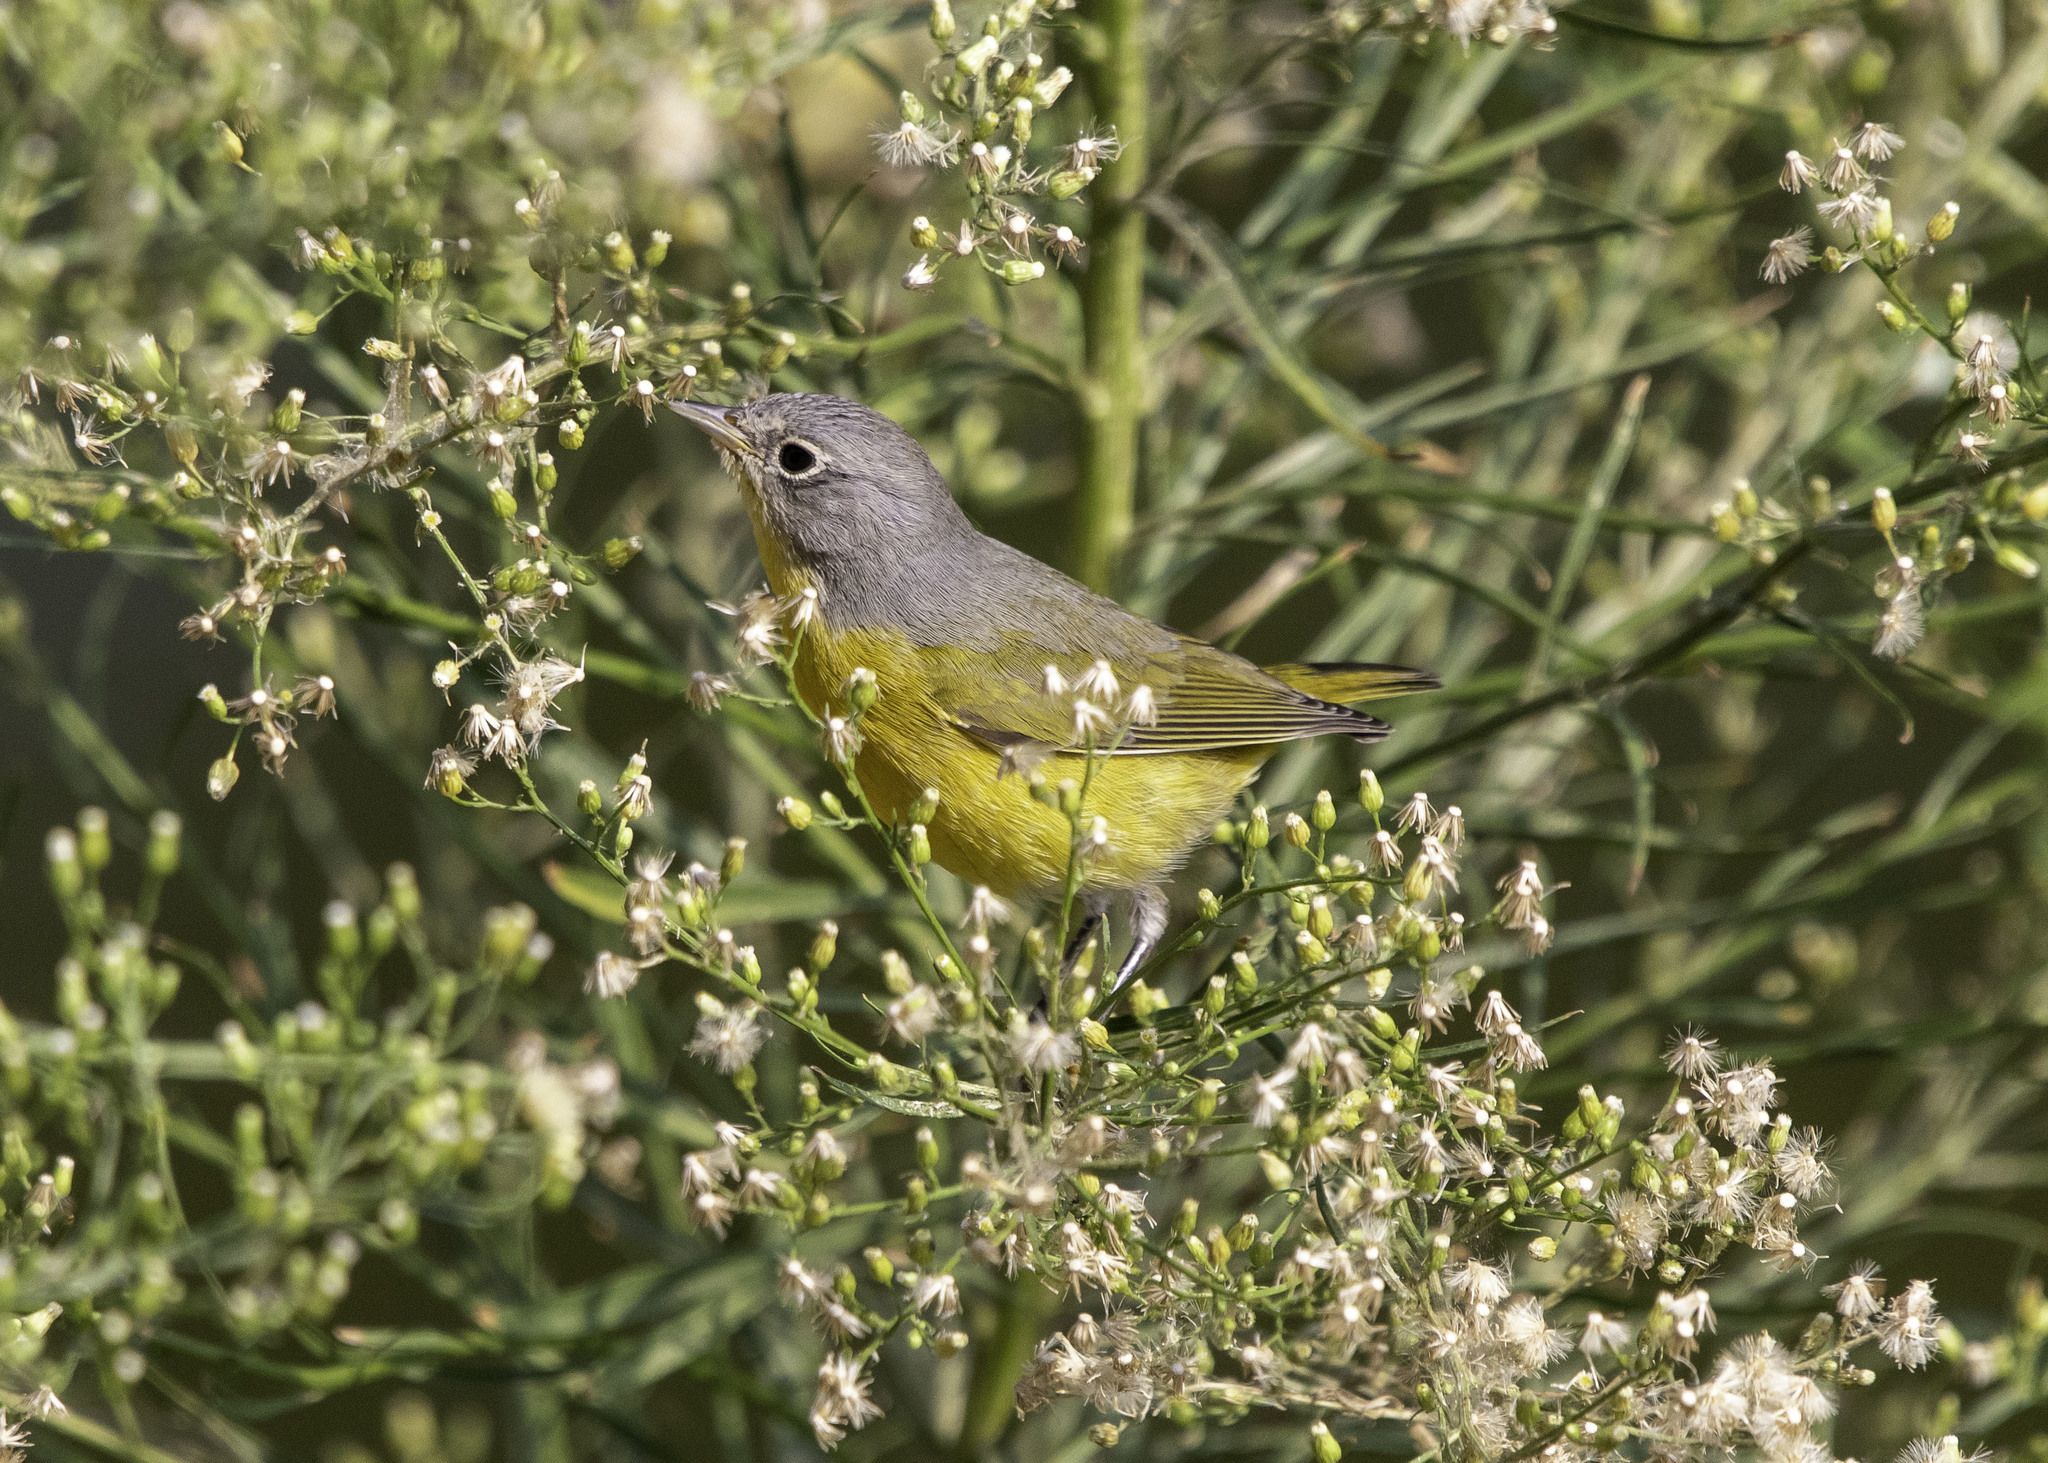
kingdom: Animalia
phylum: Chordata
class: Aves
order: Passeriformes
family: Parulidae
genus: Leiothlypis
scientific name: Leiothlypis ruficapilla
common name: Nashville warbler
